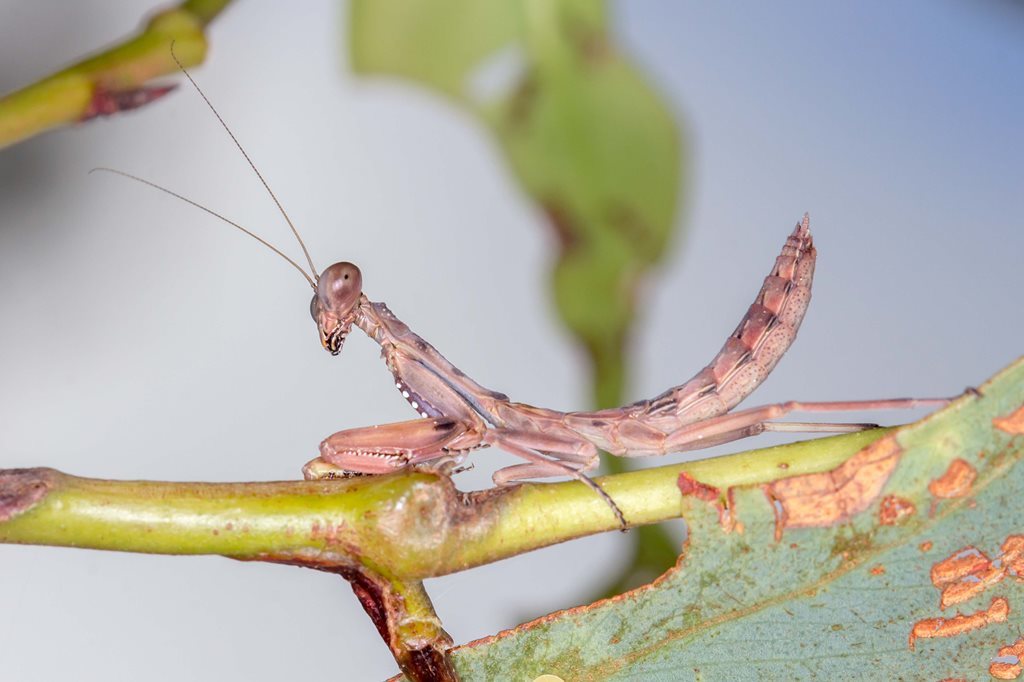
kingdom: Animalia
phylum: Arthropoda
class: Insecta
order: Mantodea
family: Mantidae
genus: Sphodropoda
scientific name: Sphodropoda tristis
